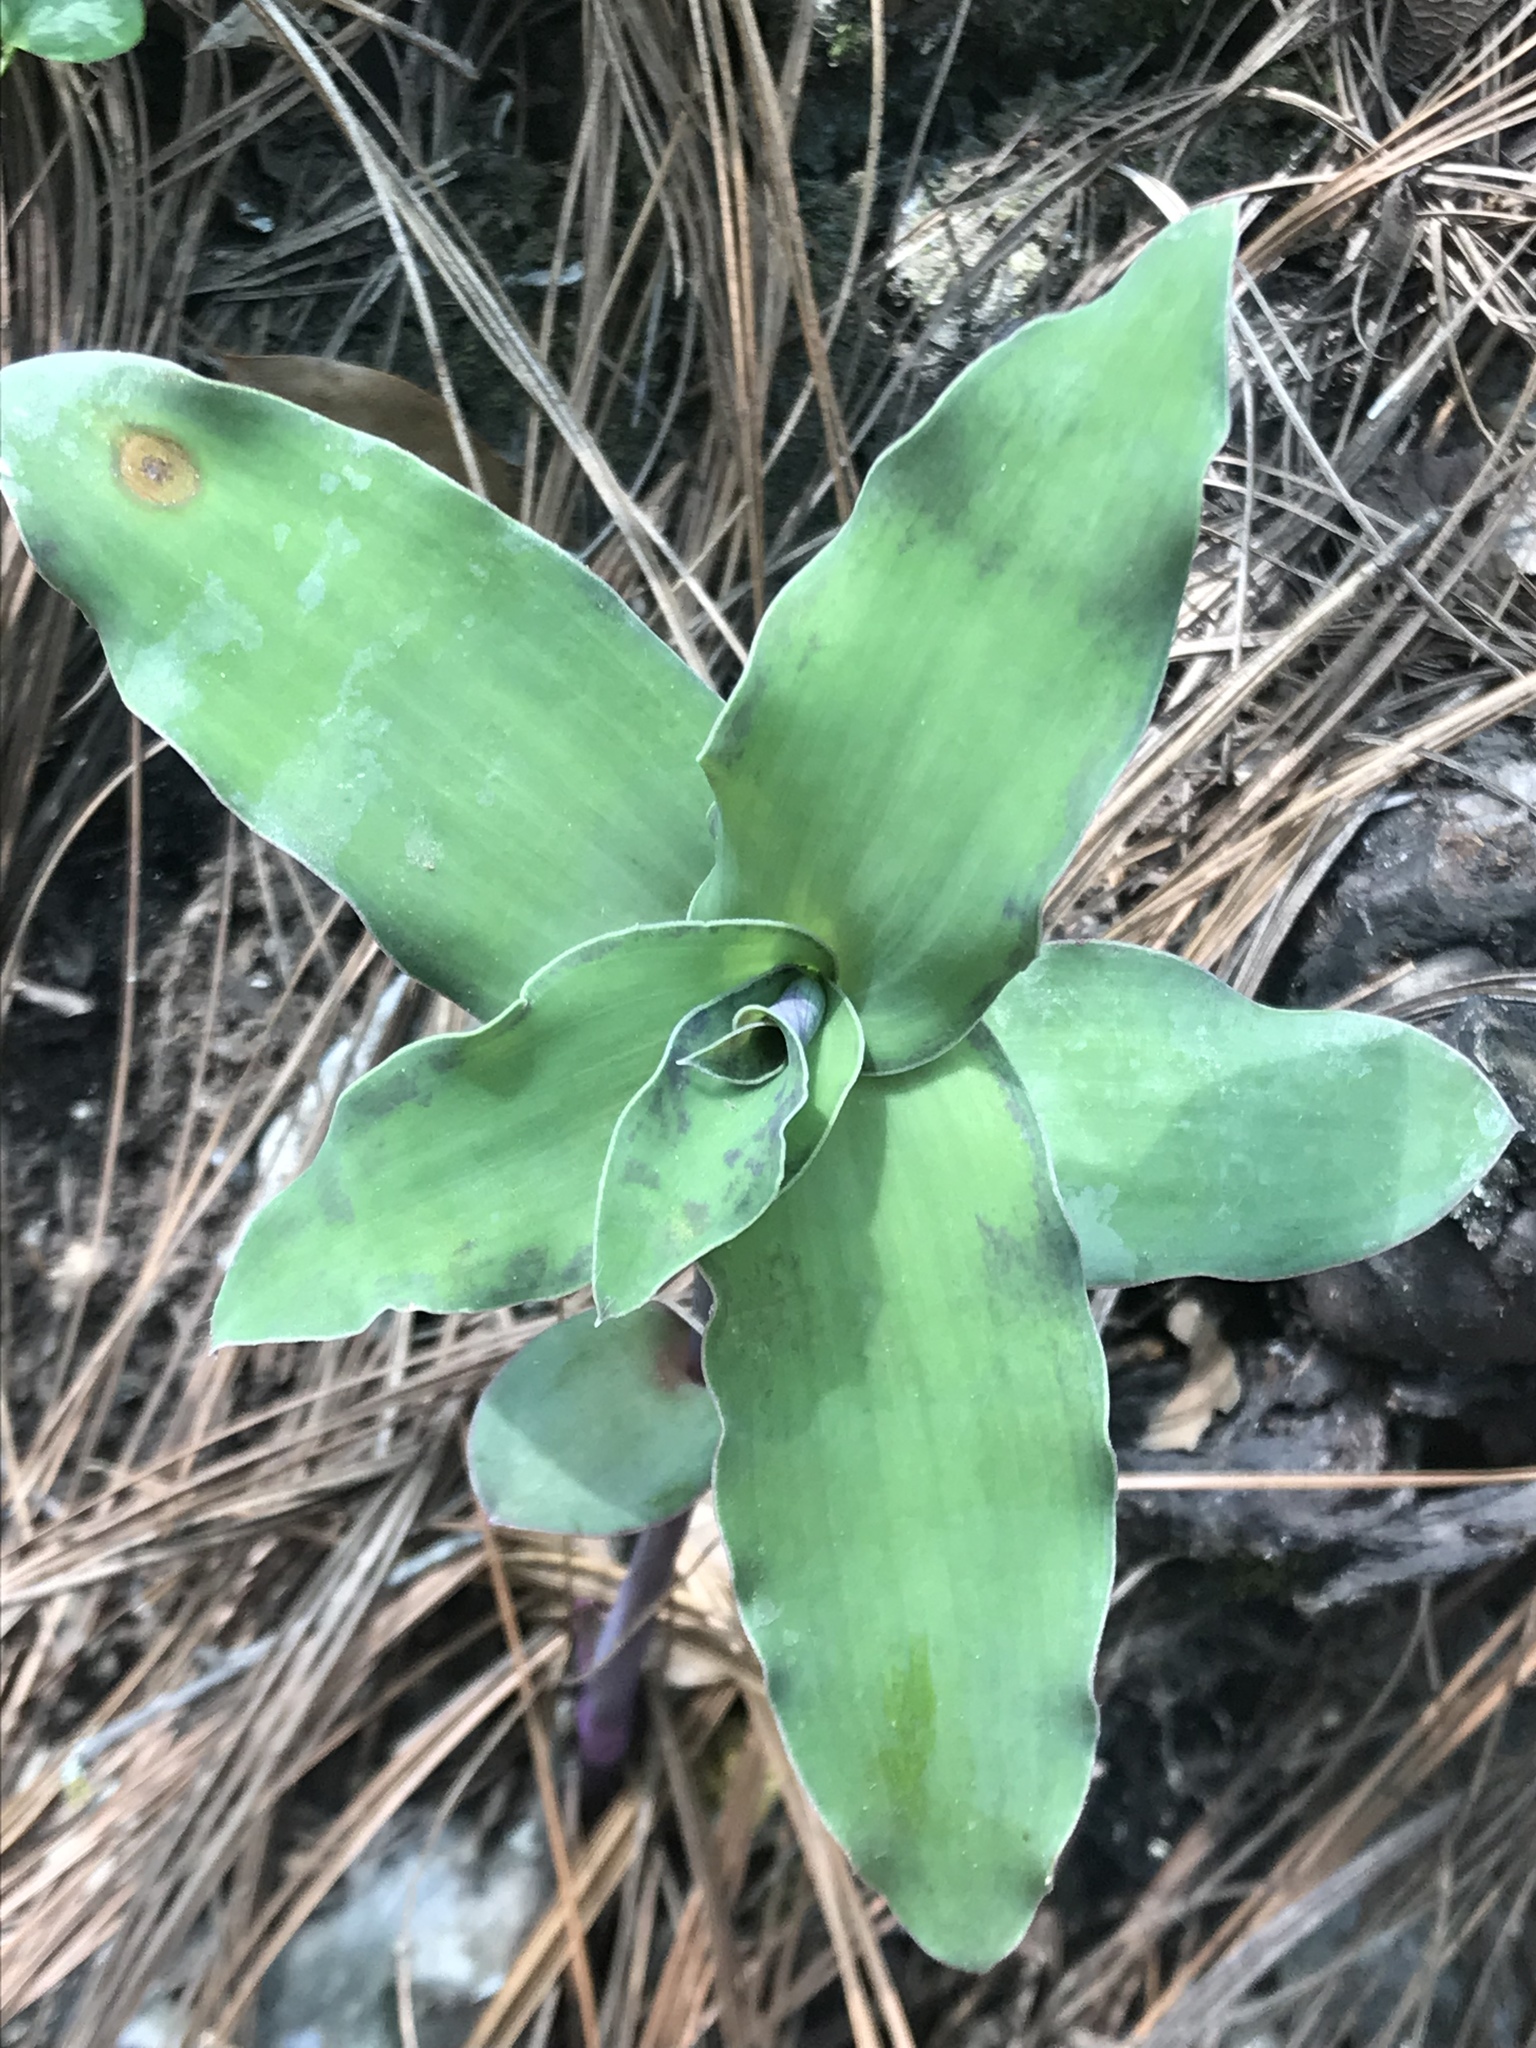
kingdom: Plantae
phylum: Tracheophyta
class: Liliopsida
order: Commelinales
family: Commelinaceae
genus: Tradescantia
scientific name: Tradescantia brevifolia
